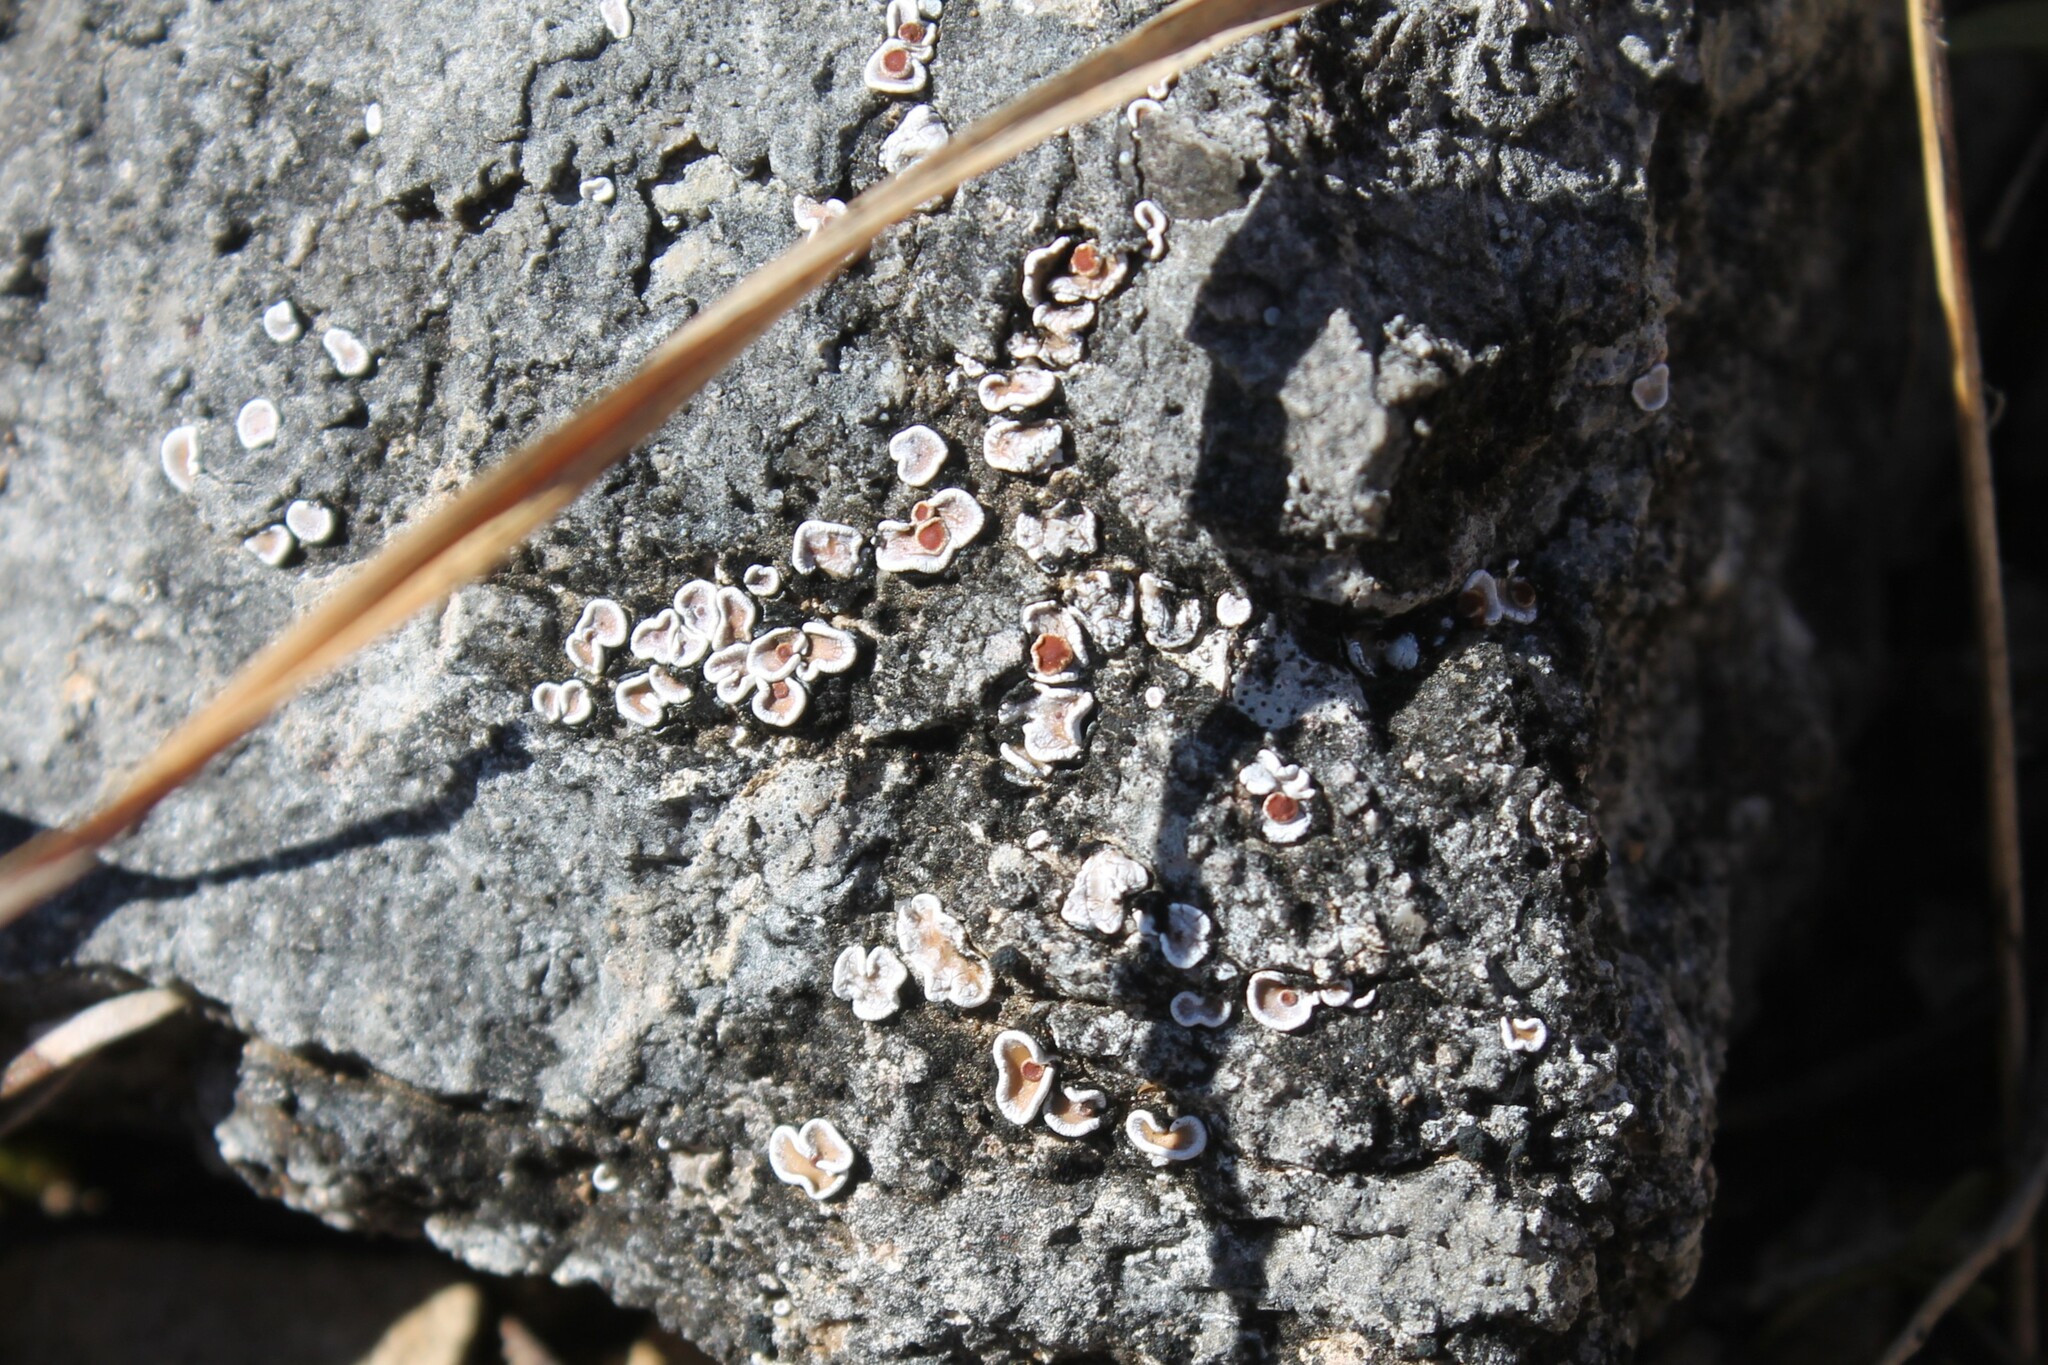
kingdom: Fungi
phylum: Ascomycota
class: Lecanoromycetes
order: Lecanorales
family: Psoraceae
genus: Psora
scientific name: Psora pseudorussellii
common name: Bordered scale lichen
